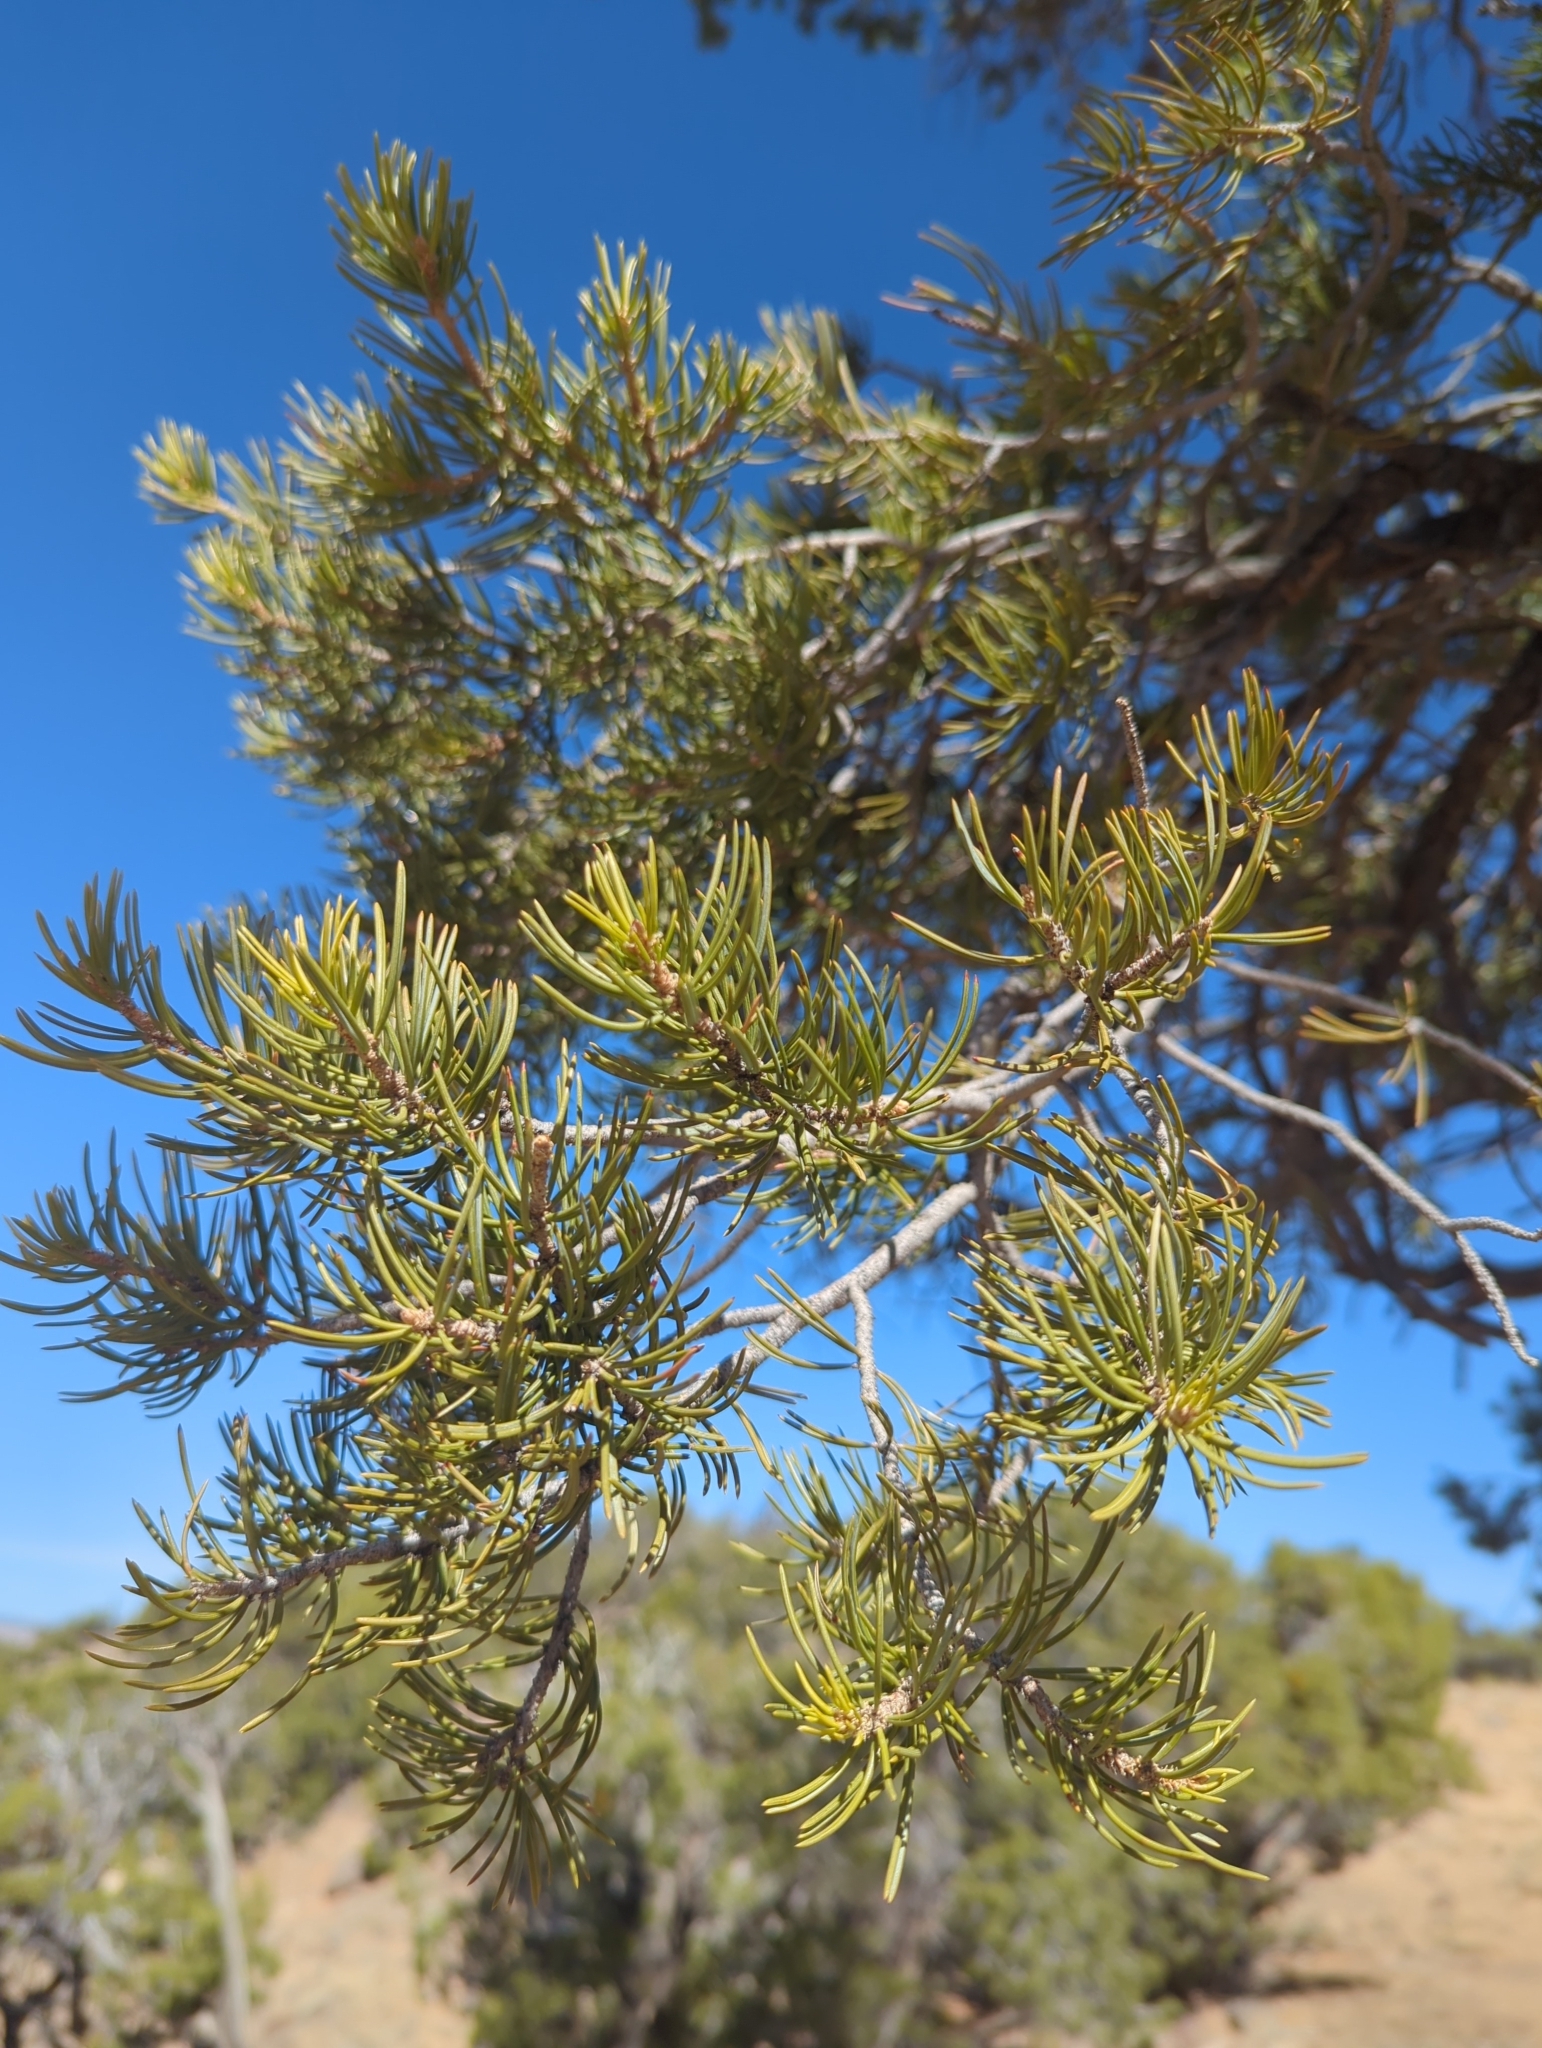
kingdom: Plantae
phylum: Tracheophyta
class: Pinopsida
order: Pinales
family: Pinaceae
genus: Pinus
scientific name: Pinus edulis
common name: Colorado pinyon
